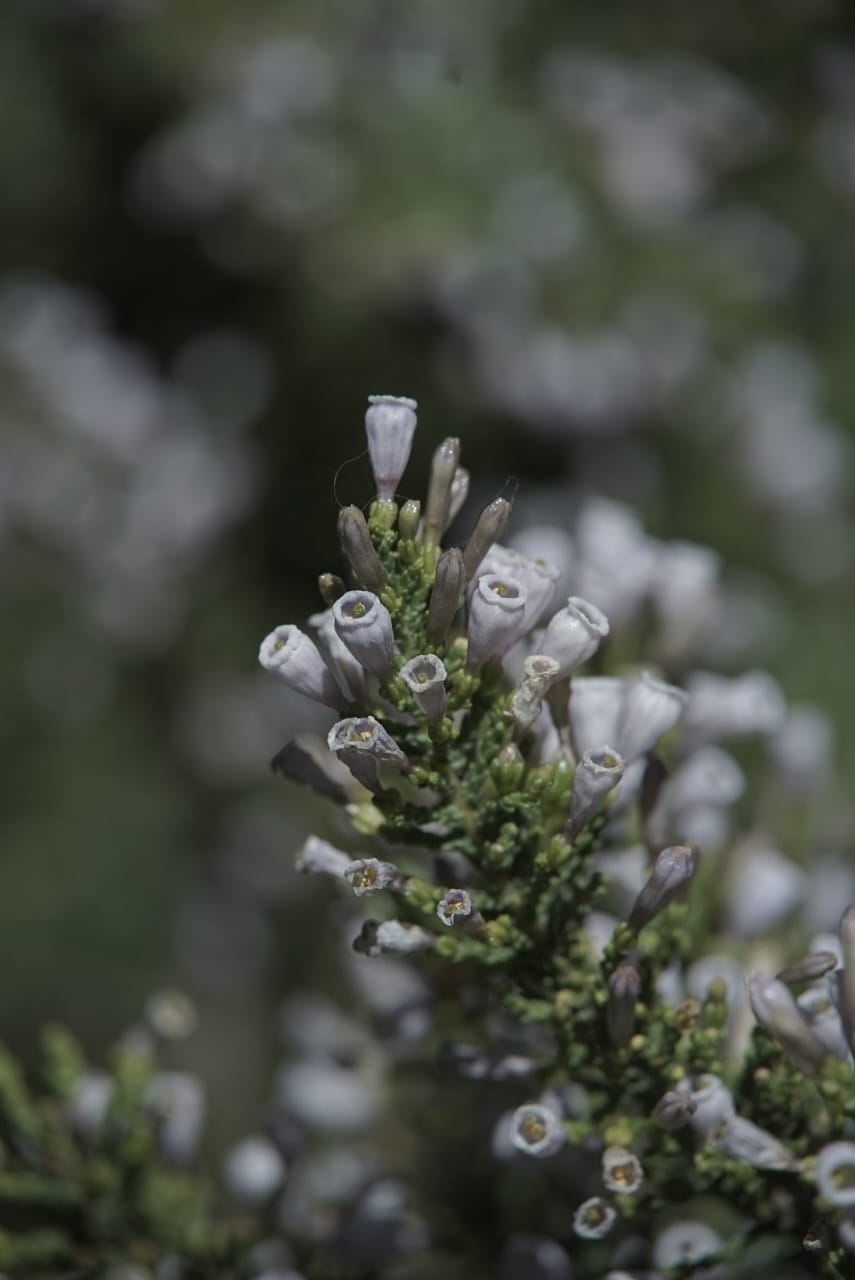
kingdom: Plantae
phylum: Tracheophyta
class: Magnoliopsida
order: Solanales
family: Solanaceae
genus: Fabiana
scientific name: Fabiana imbricata
